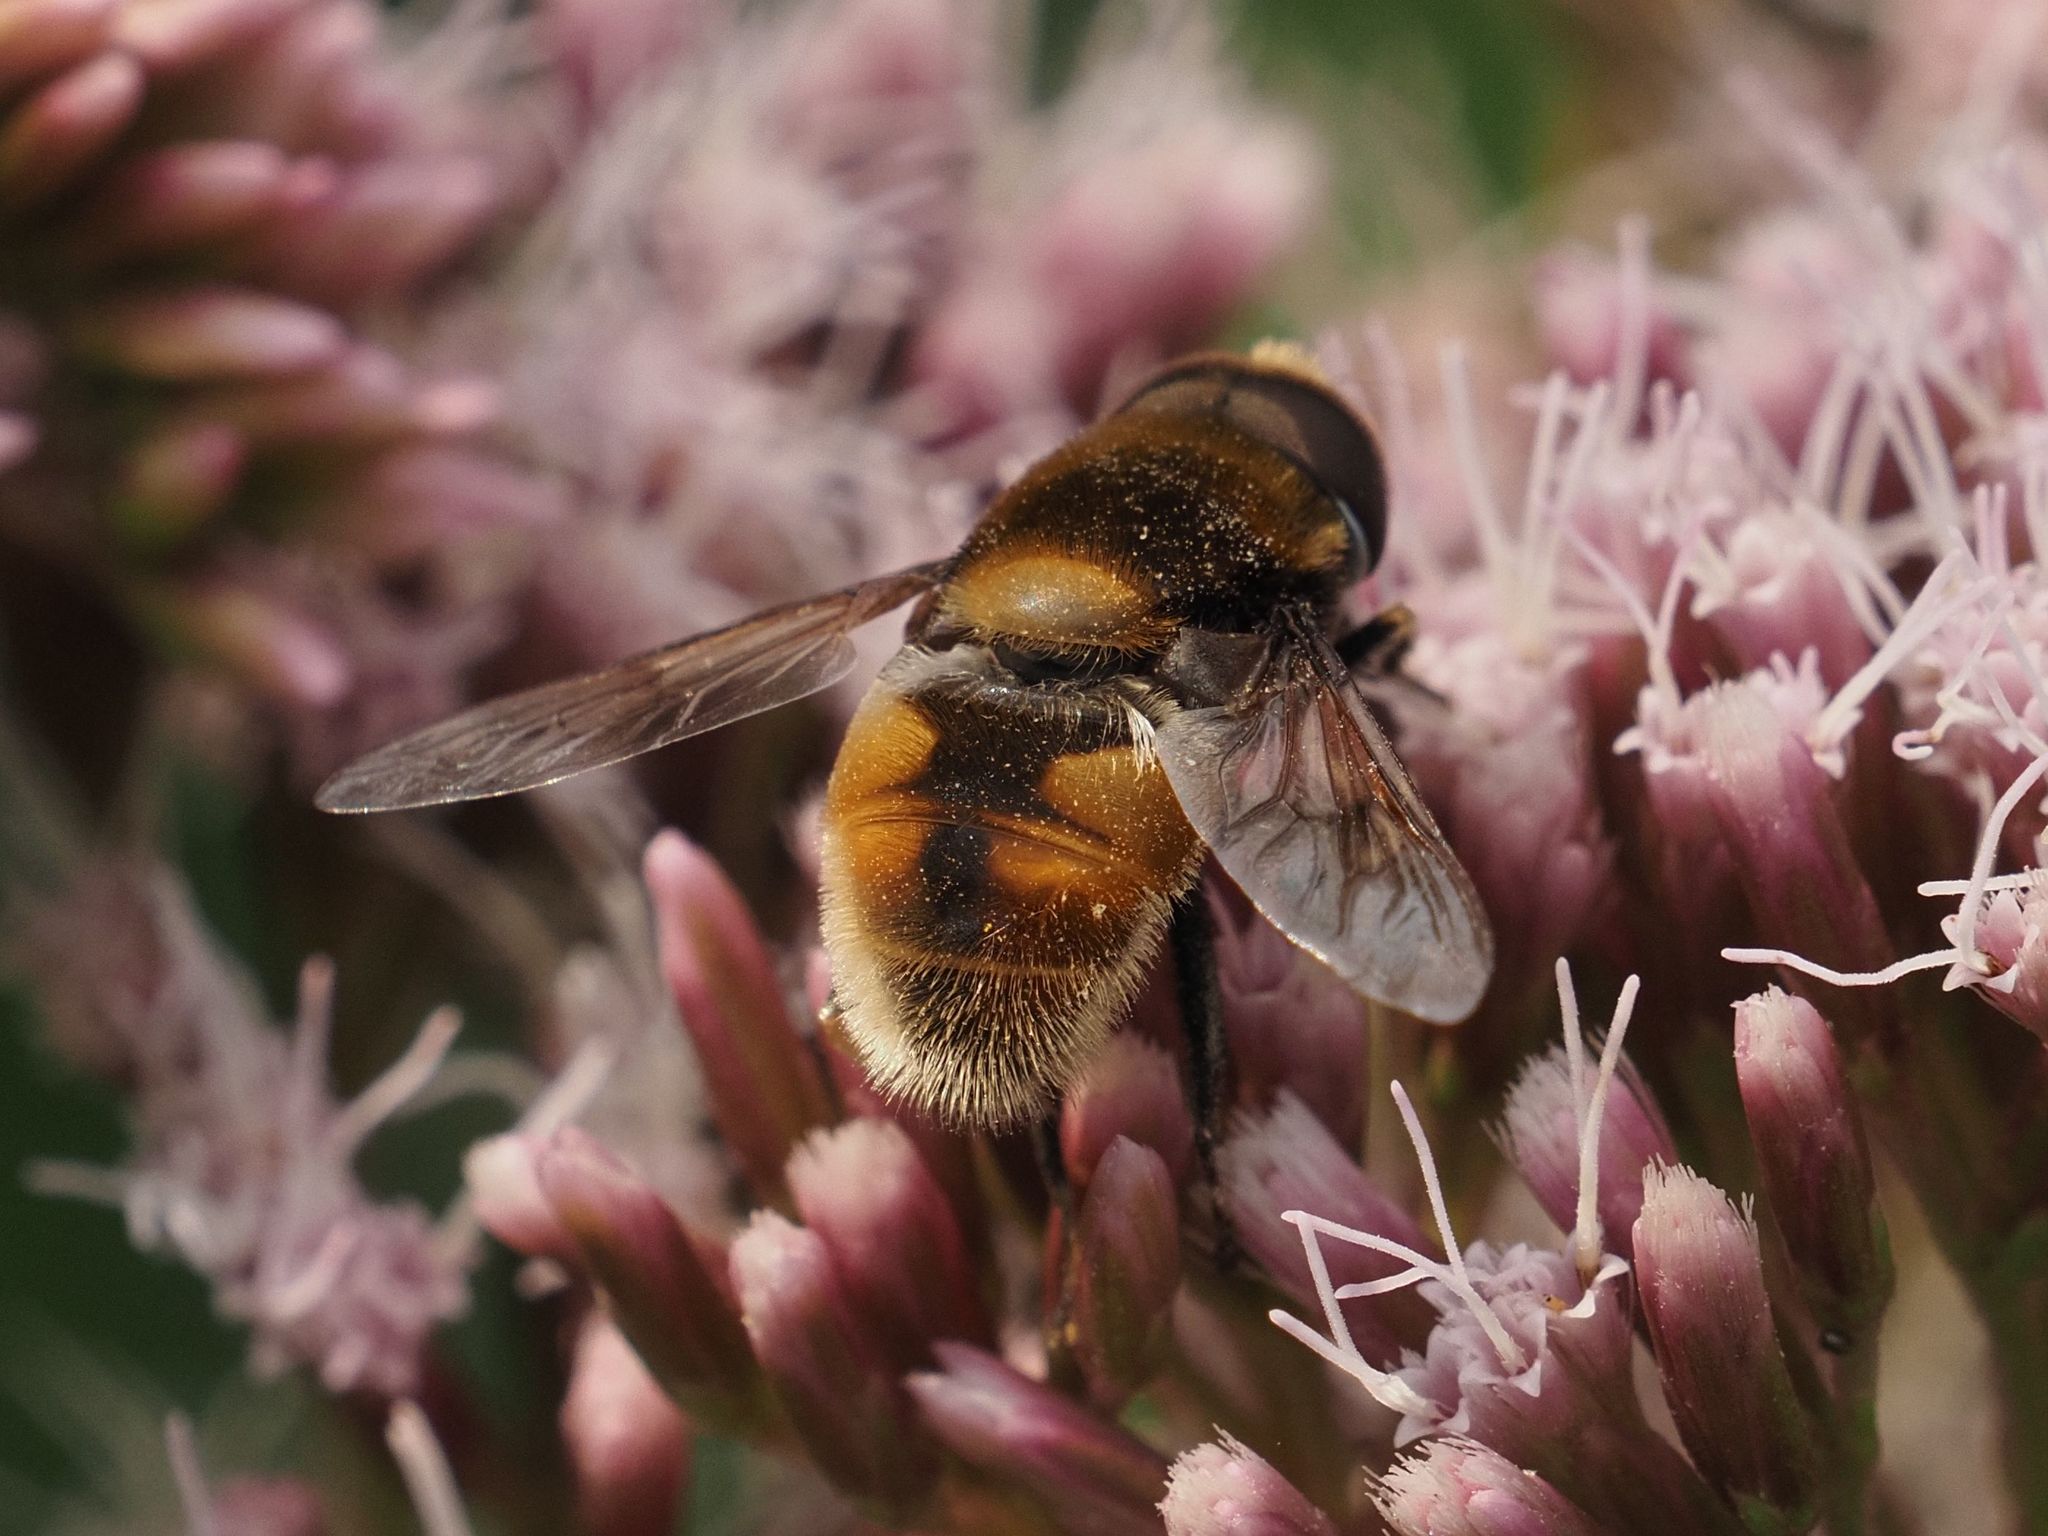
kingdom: Animalia
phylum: Arthropoda
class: Insecta
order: Diptera
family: Syrphidae
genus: Eristalis
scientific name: Eristalis intricaria
